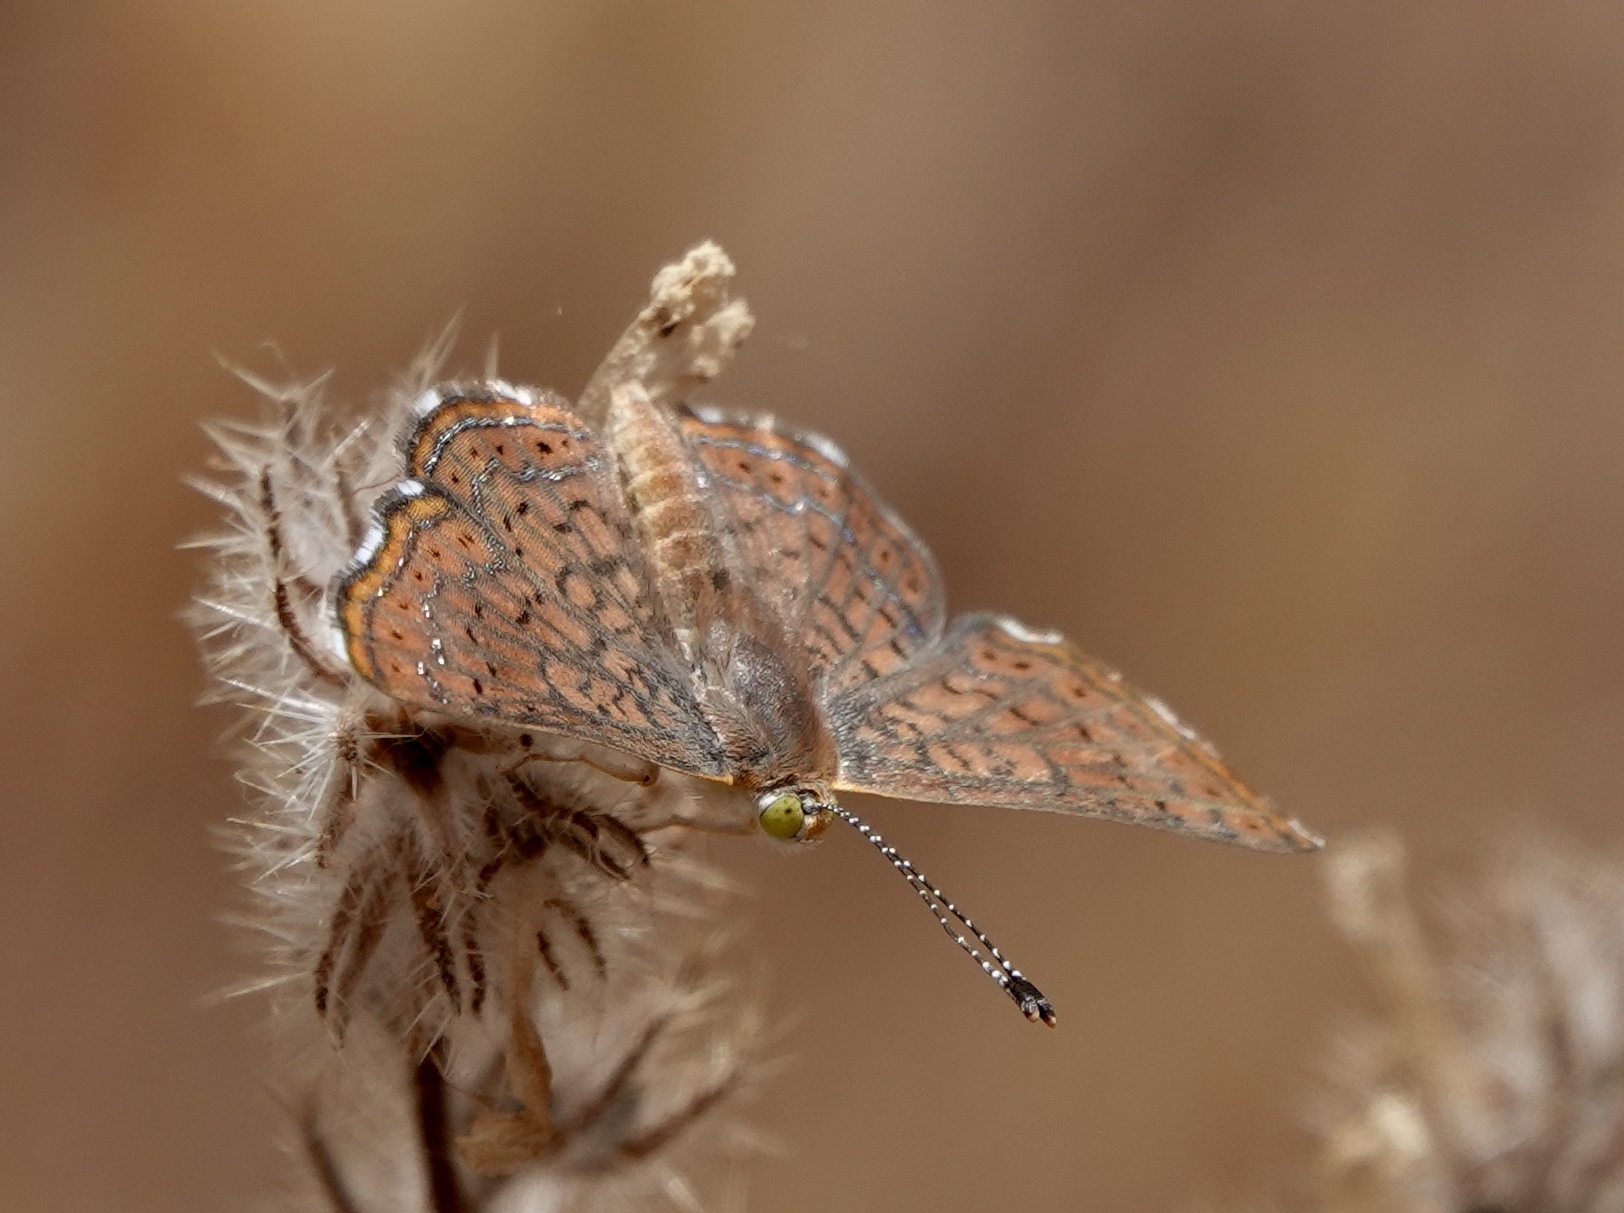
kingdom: Animalia
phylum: Arthropoda
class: Insecta
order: Lepidoptera
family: Lycaenidae
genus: Emesis
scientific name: Emesis wrighti
